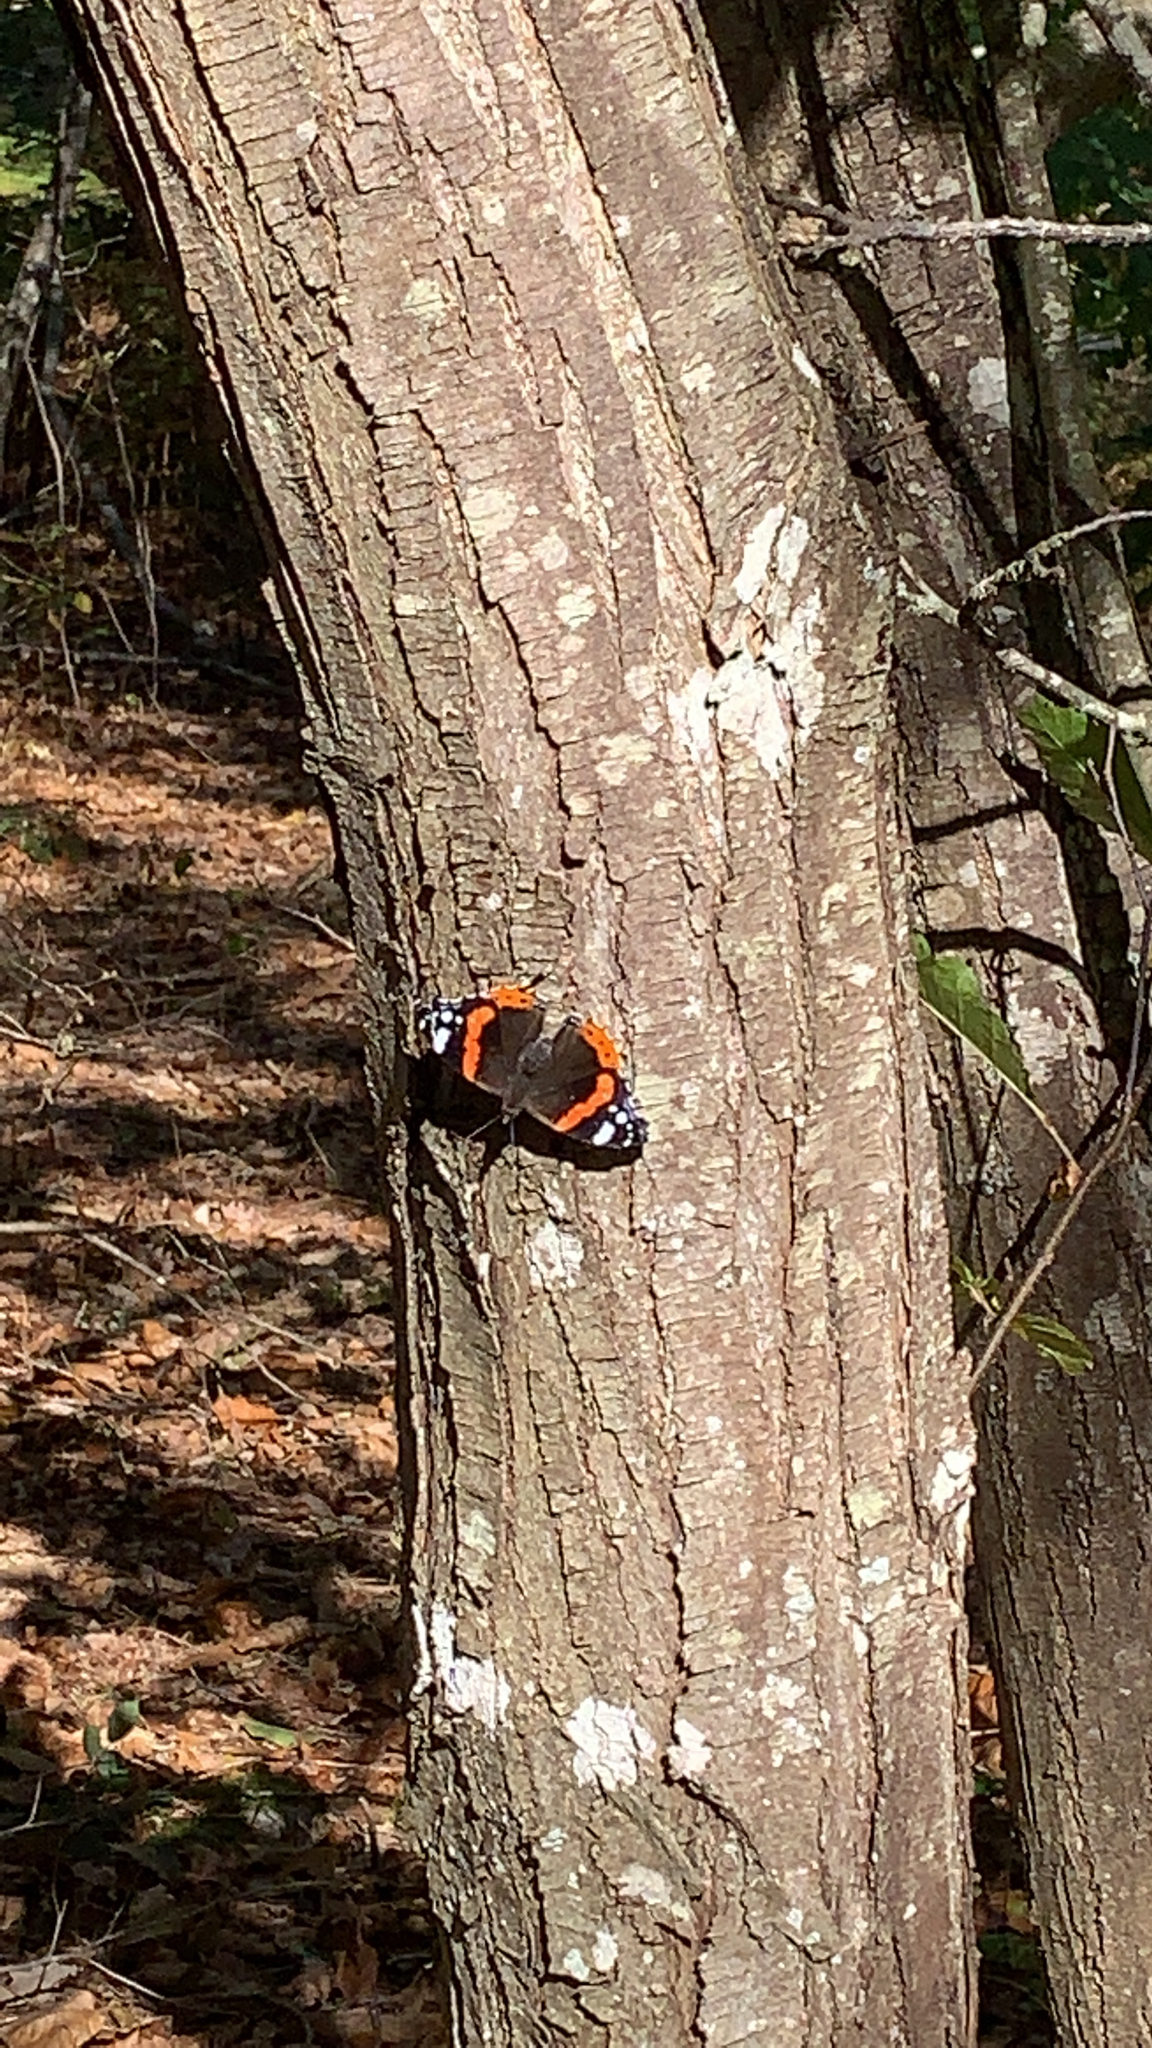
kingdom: Animalia
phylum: Arthropoda
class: Insecta
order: Lepidoptera
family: Nymphalidae
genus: Vanessa
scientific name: Vanessa atalanta
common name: Red admiral
